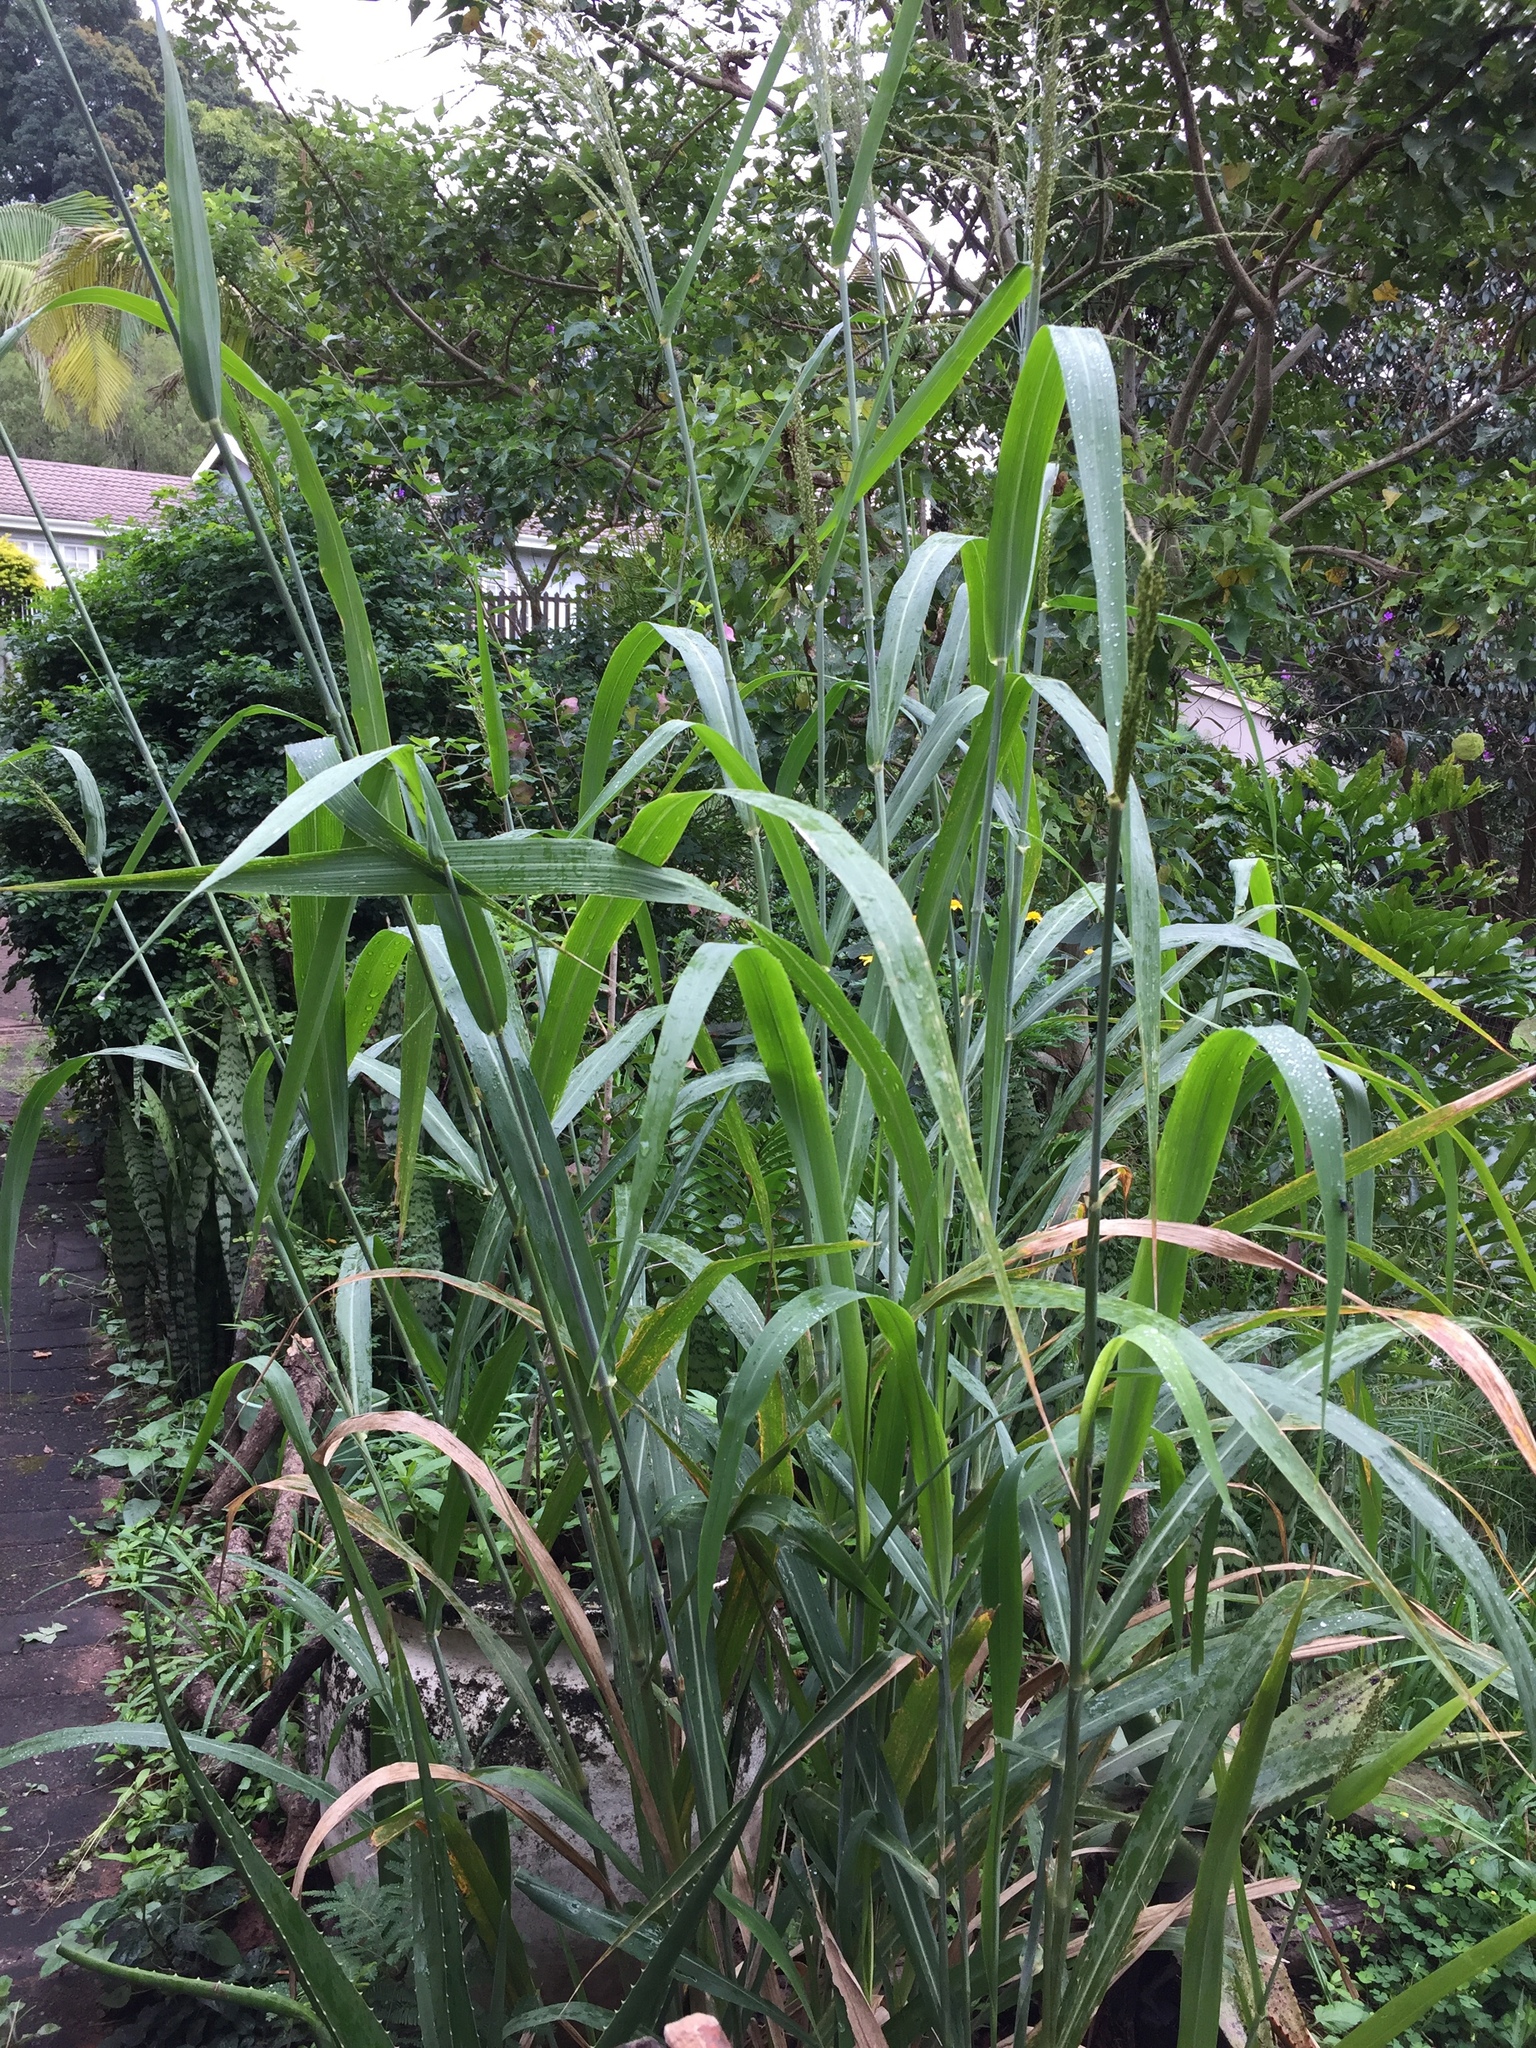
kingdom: Plantae
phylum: Tracheophyta
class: Liliopsida
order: Poales
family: Poaceae
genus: Megathyrsus
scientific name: Megathyrsus maximus
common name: Guineagrass
